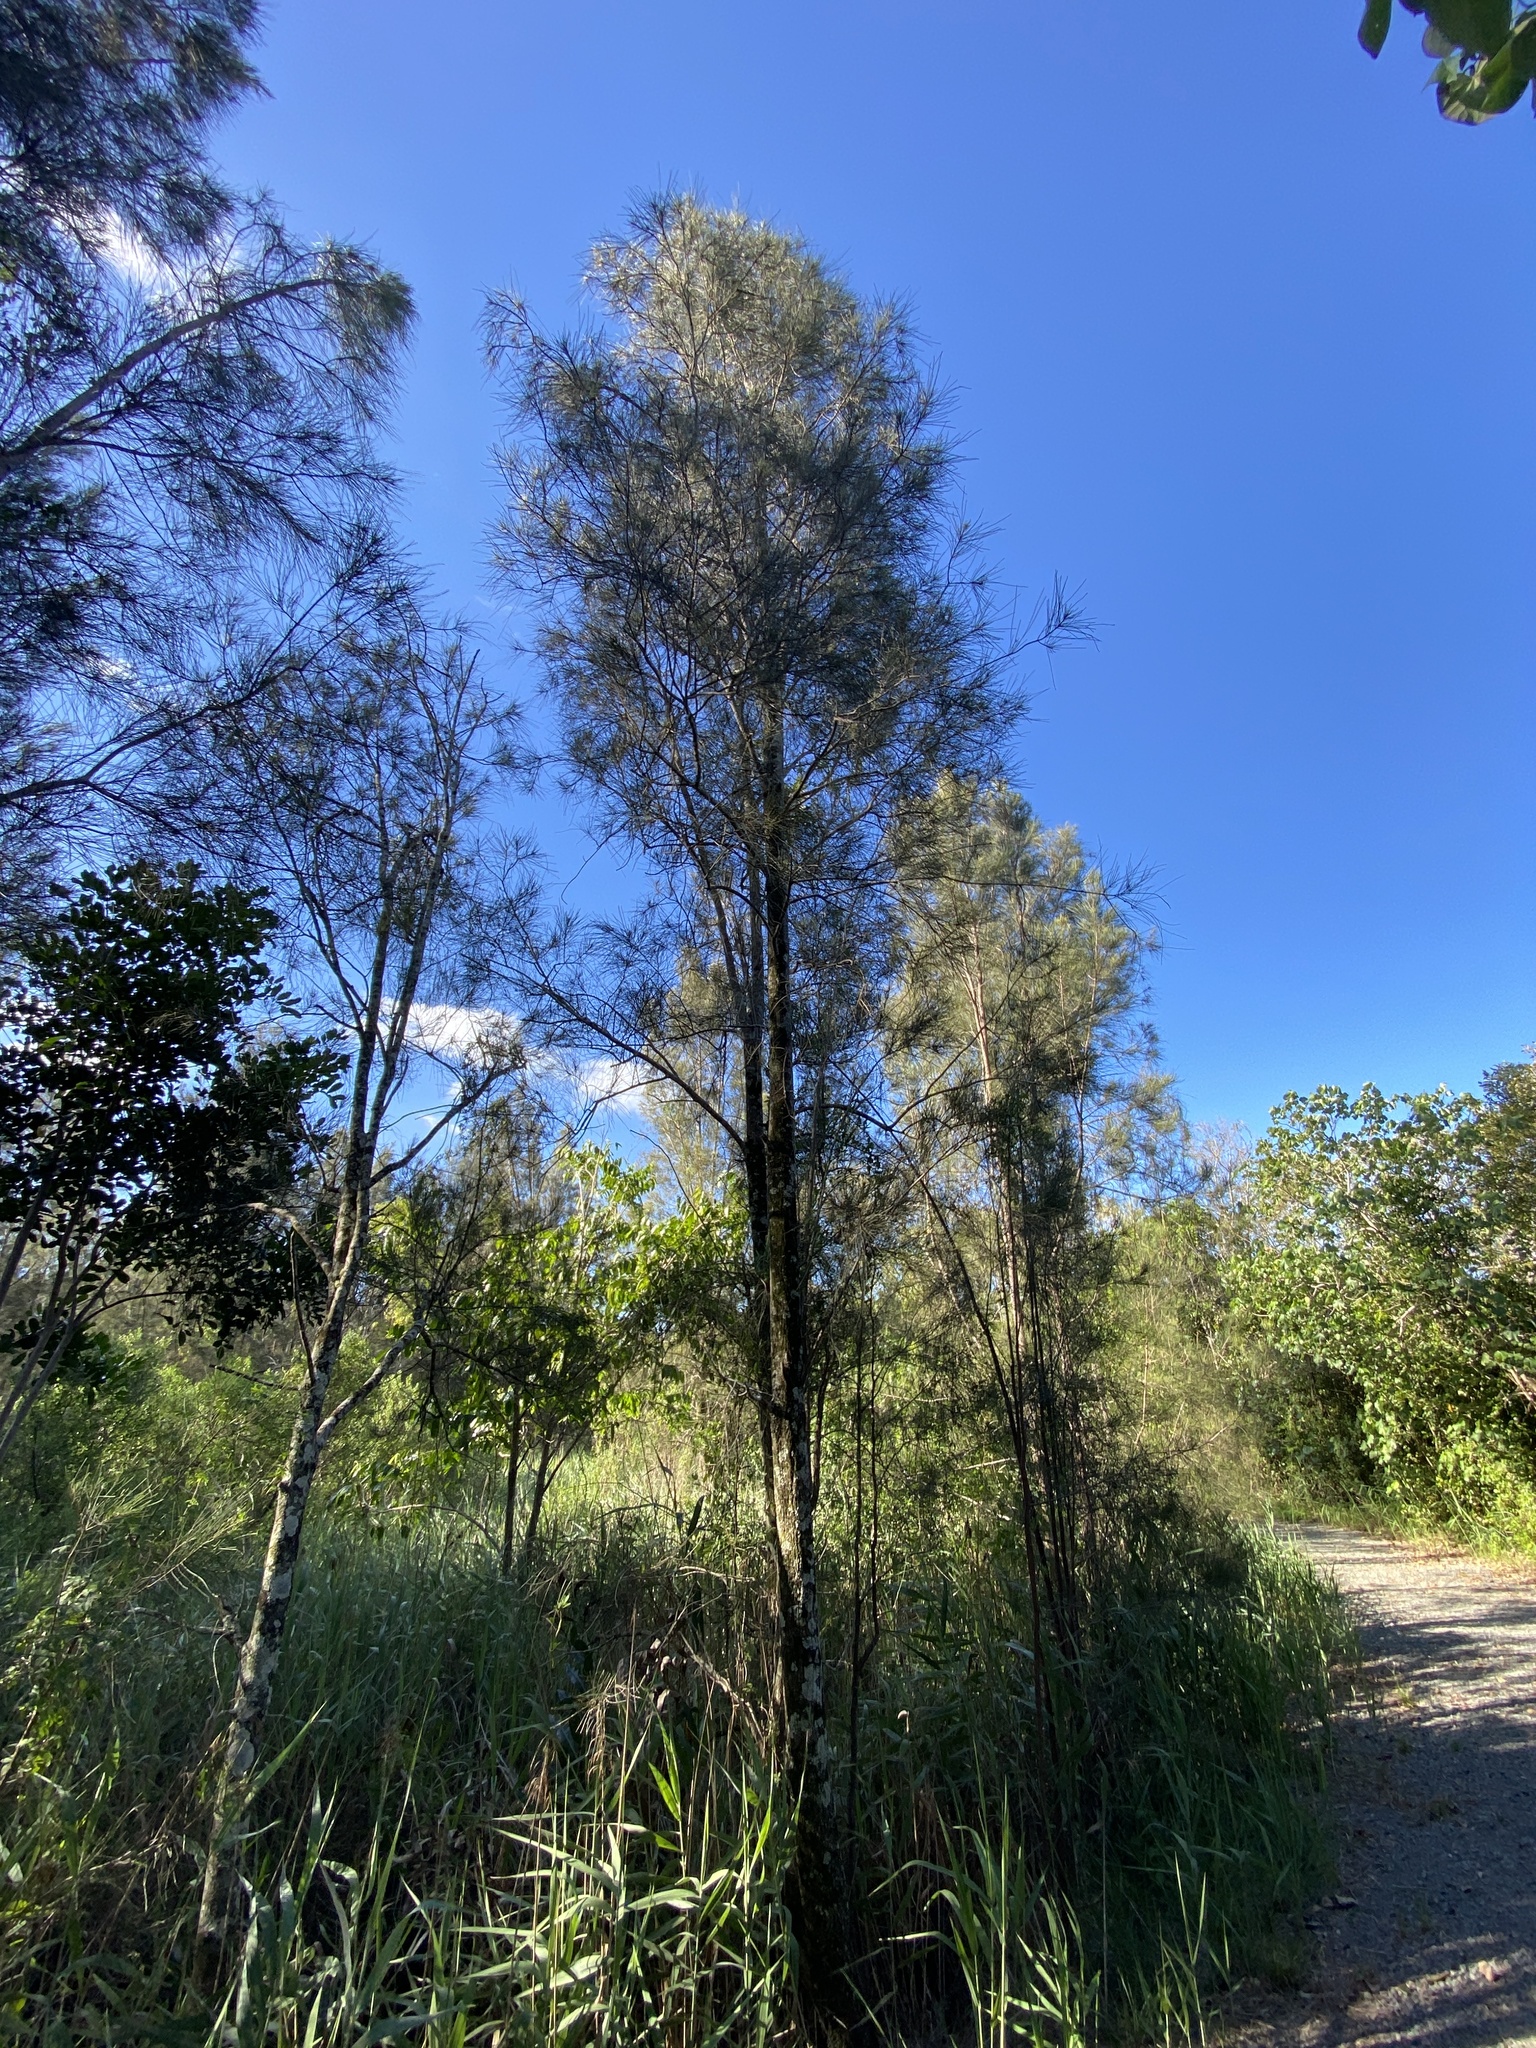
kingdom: Plantae
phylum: Tracheophyta
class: Magnoliopsida
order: Fagales
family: Casuarinaceae
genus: Casuarina
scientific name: Casuarina glauca
